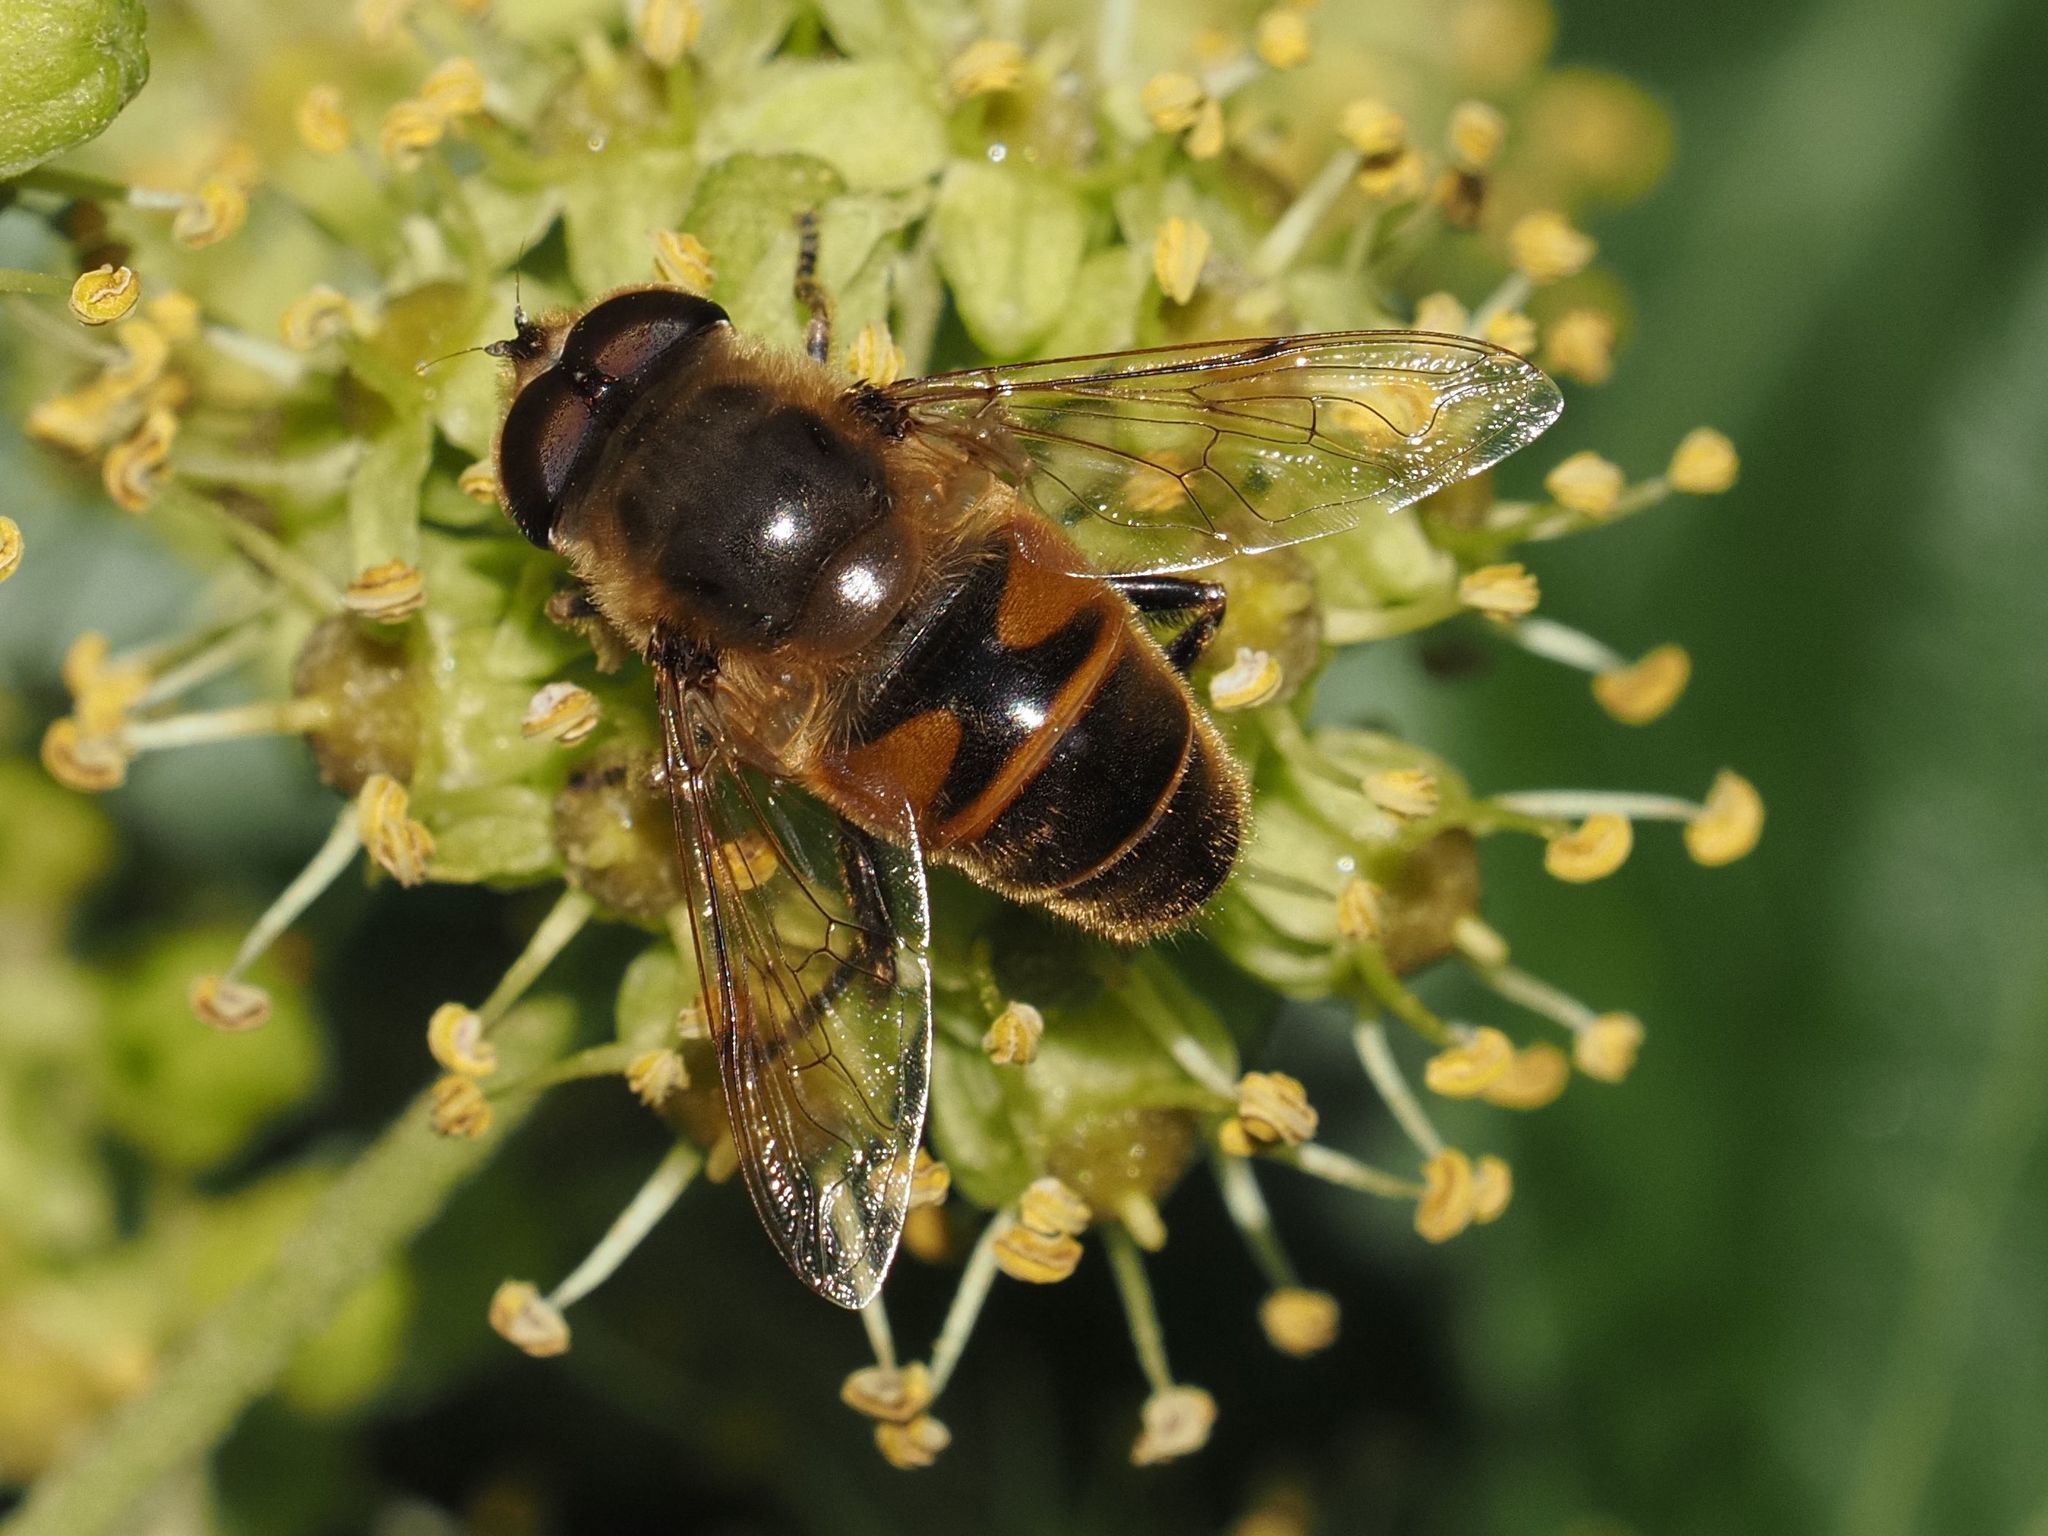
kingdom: Animalia
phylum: Arthropoda
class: Insecta
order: Diptera
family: Syrphidae
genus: Eristalis
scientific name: Eristalis tenax
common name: Drone fly
